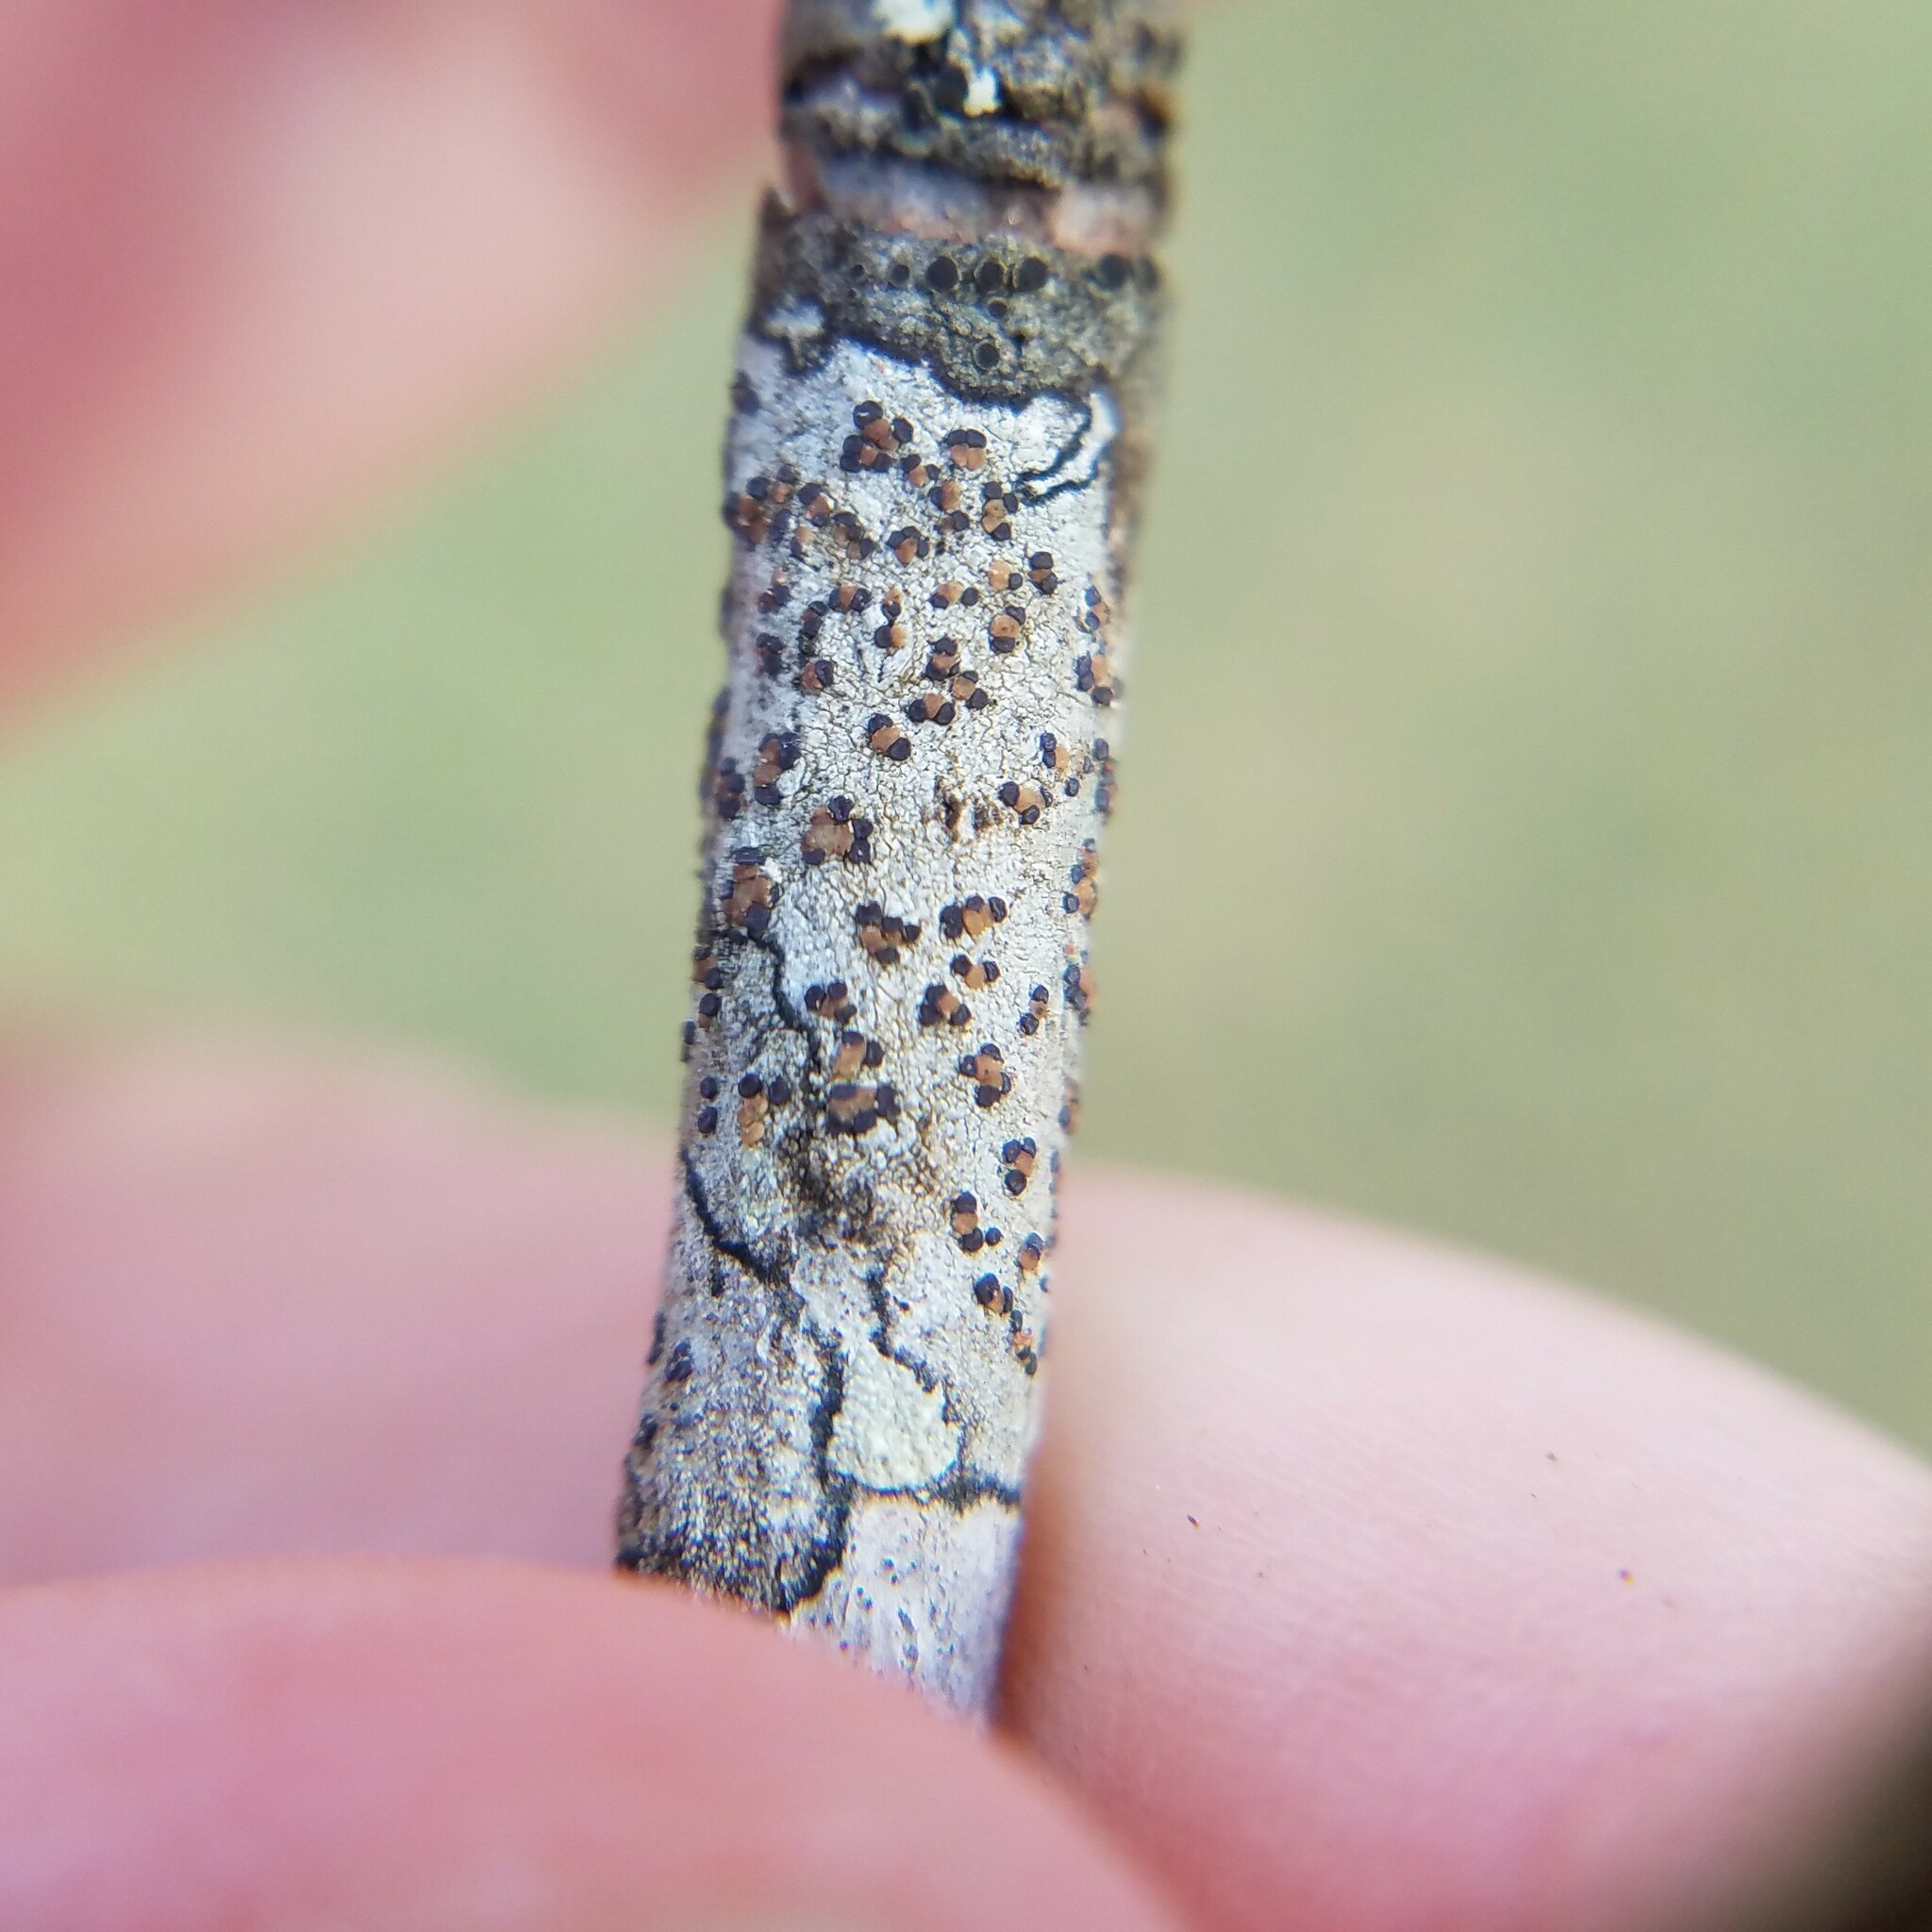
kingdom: Fungi
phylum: Ascomycota
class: Lecanoromycetes
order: Lecanorales
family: Lecanoraceae
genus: Traponora
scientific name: Traponora varians
